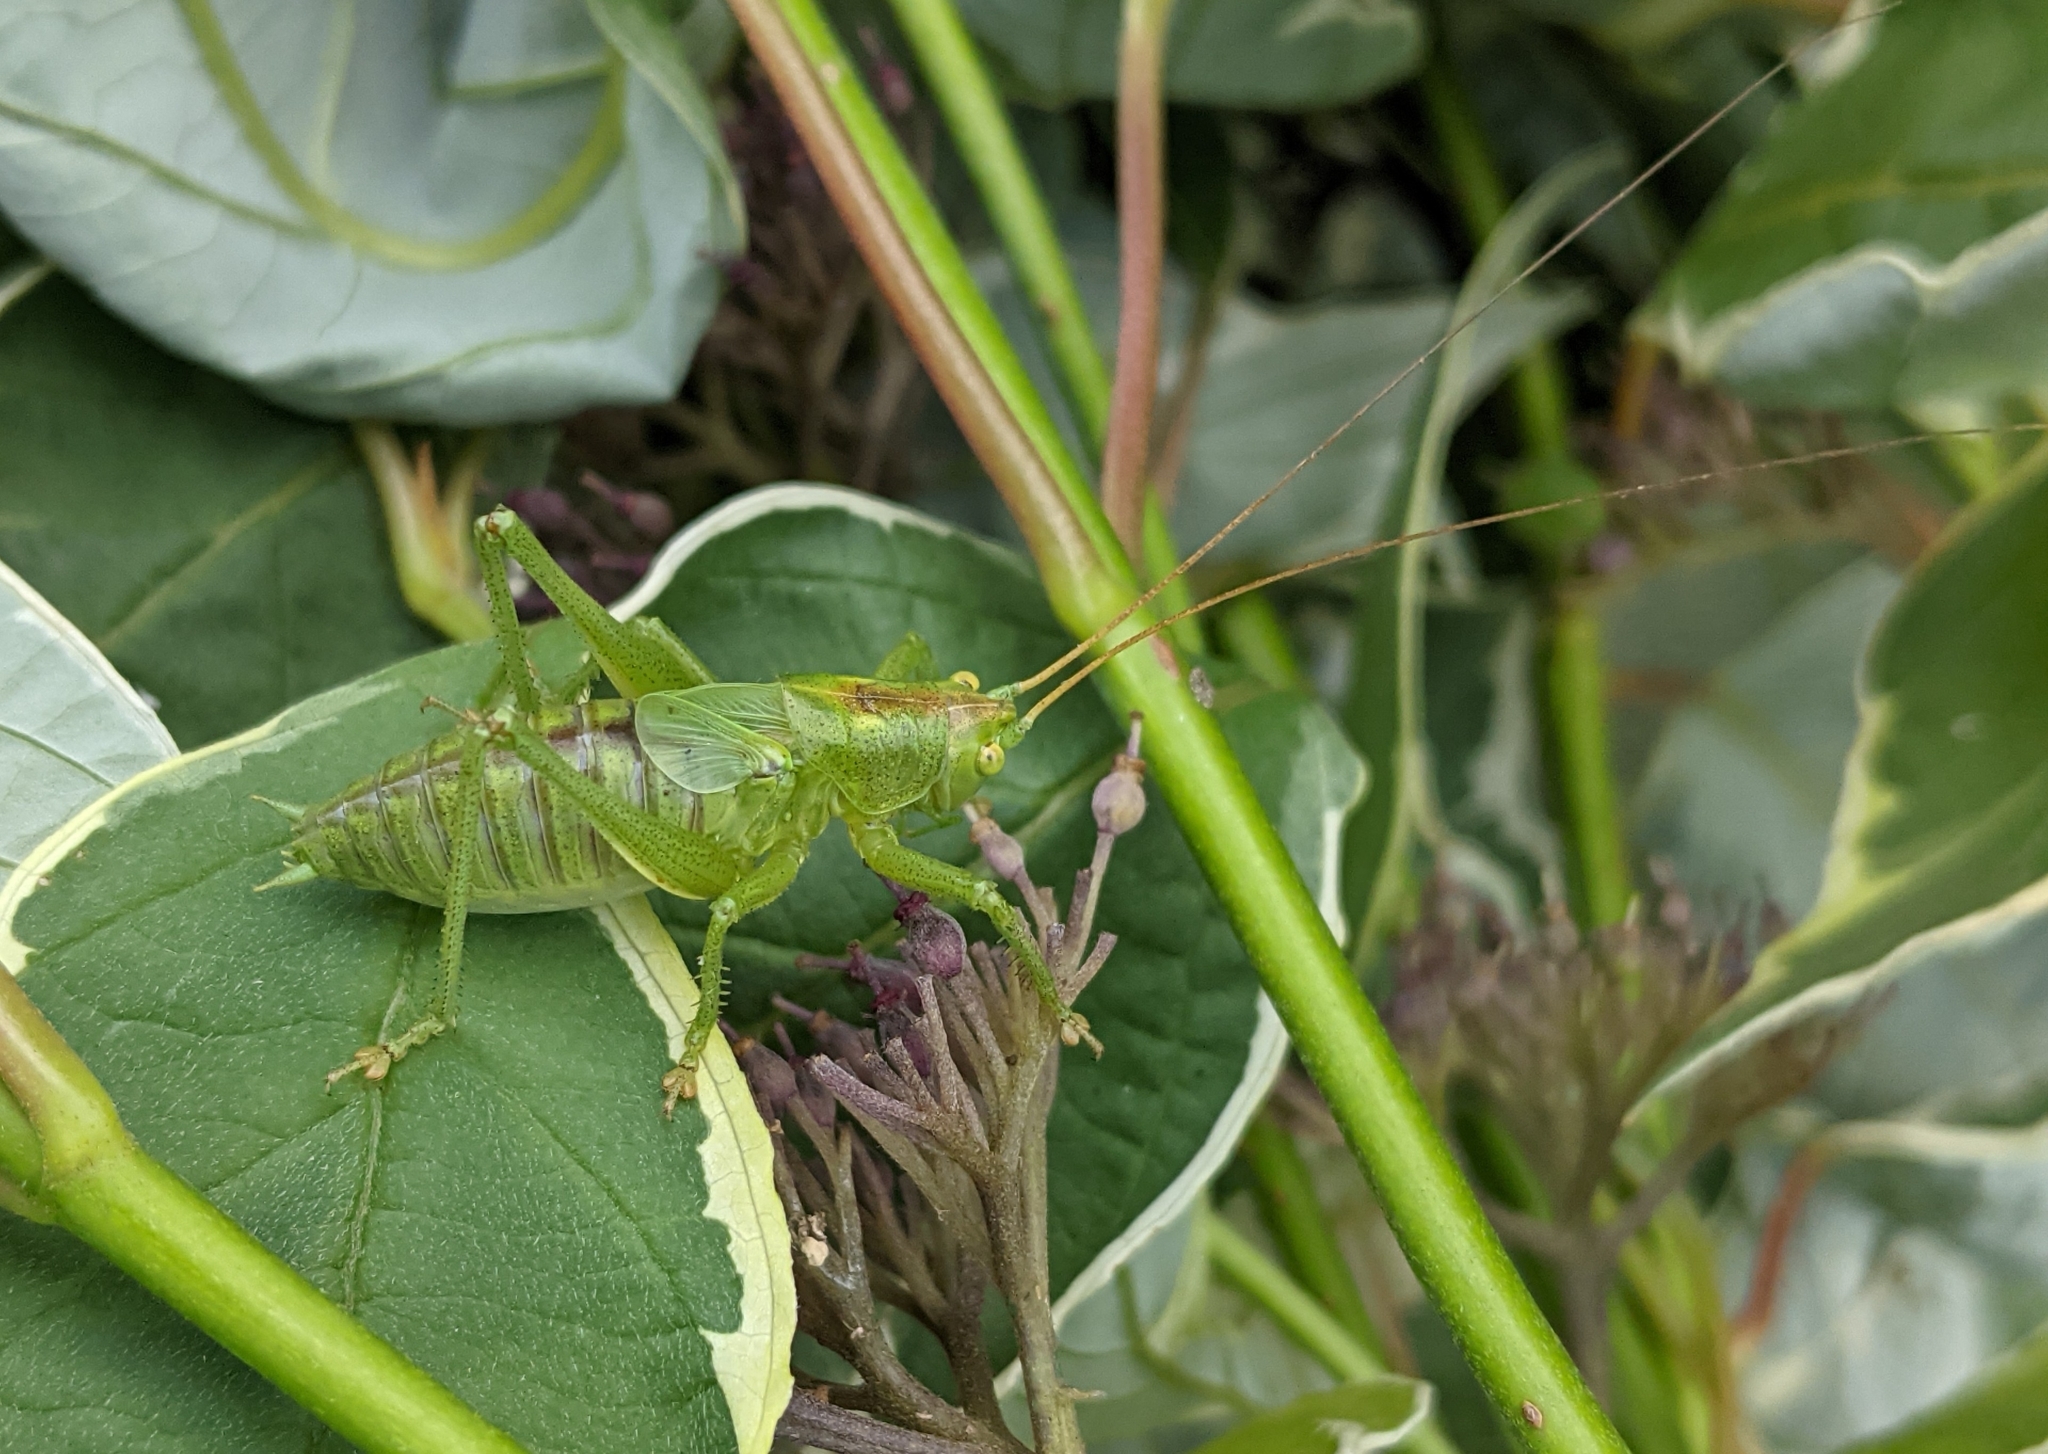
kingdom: Animalia
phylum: Arthropoda
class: Insecta
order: Orthoptera
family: Tettigoniidae
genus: Tettigonia
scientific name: Tettigonia cantans
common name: Upland green bush-cricket
